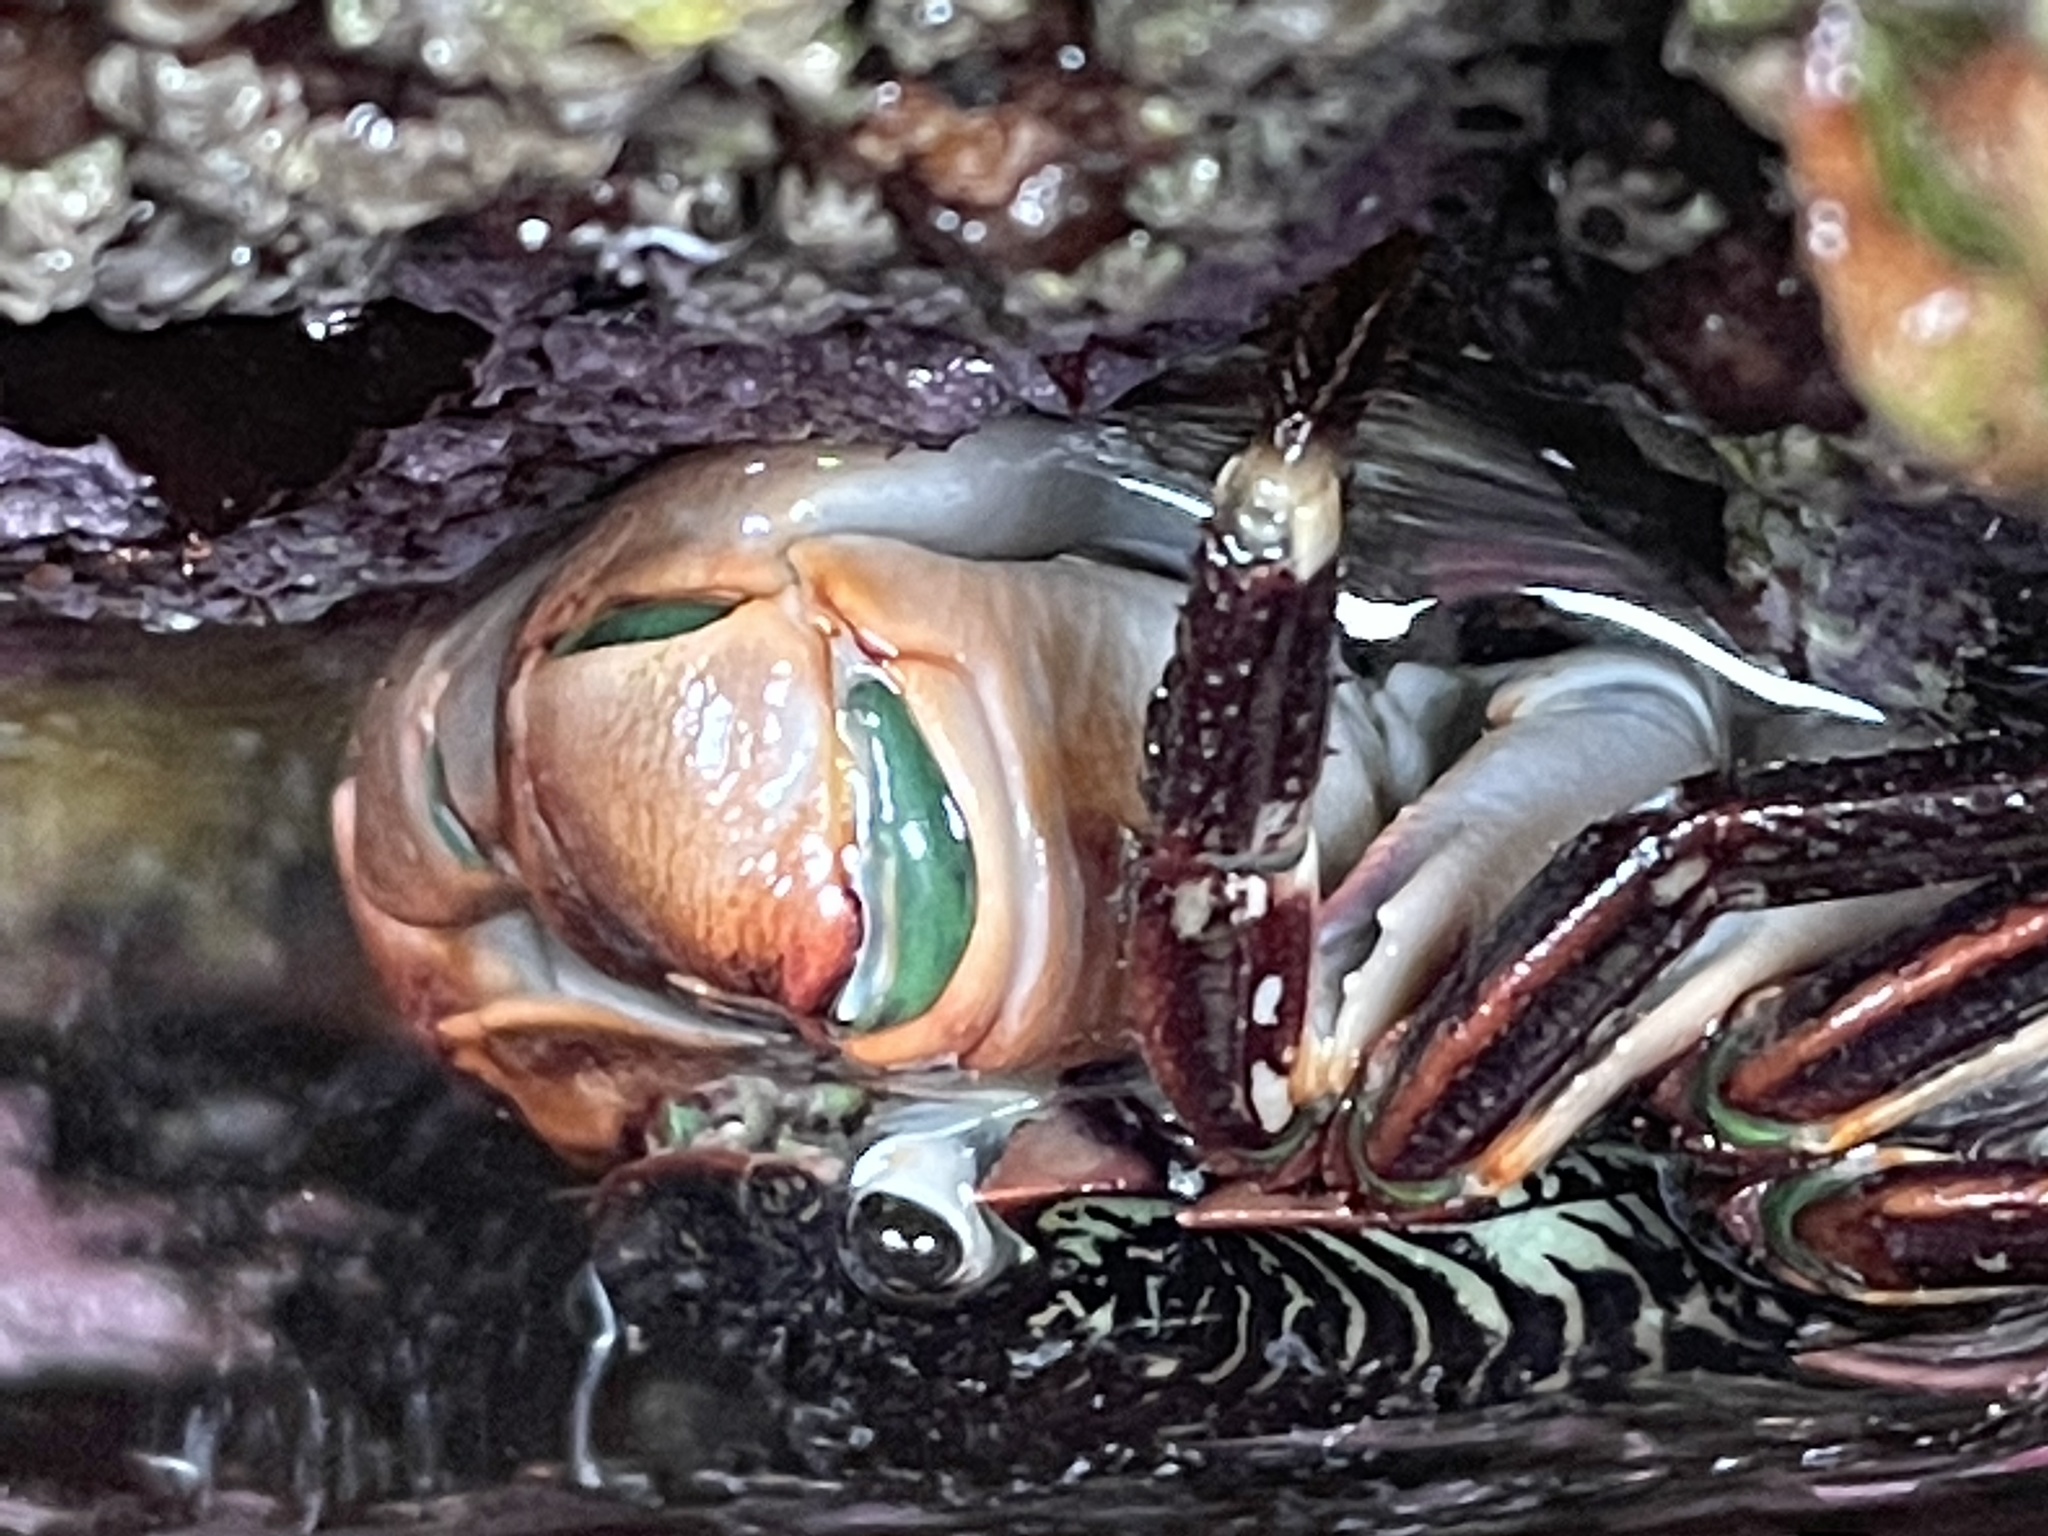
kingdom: Animalia
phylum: Arthropoda
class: Malacostraca
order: Decapoda
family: Grapsidae
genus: Pachygrapsus
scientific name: Pachygrapsus crassipes
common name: Striped shore crab
